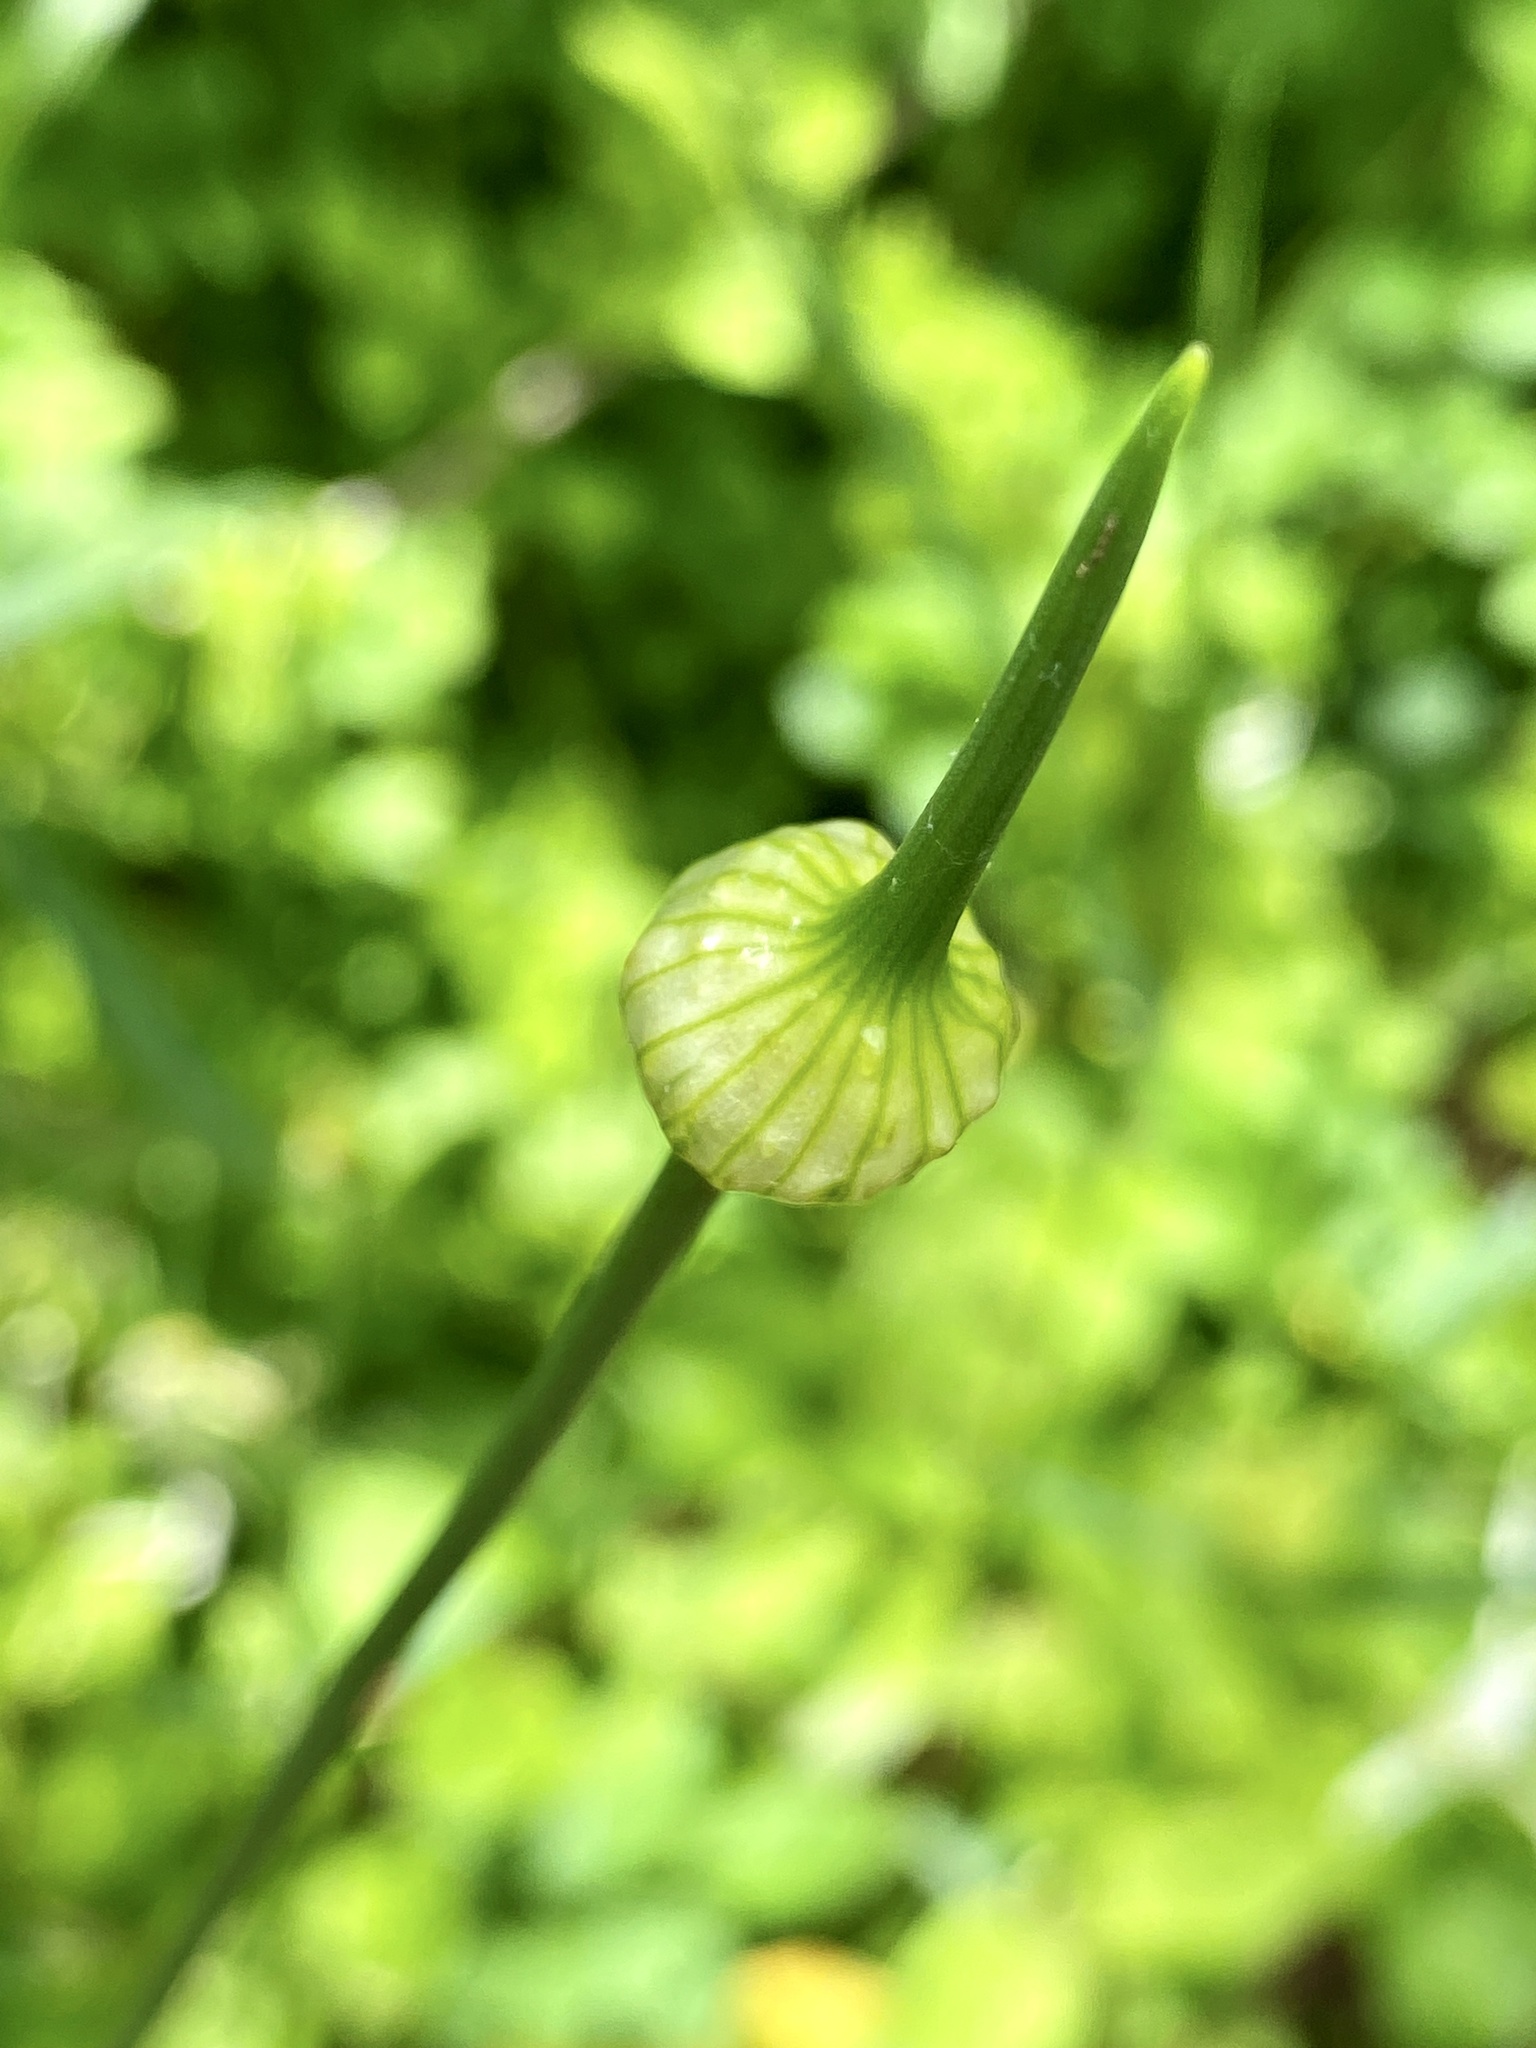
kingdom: Plantae
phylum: Tracheophyta
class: Liliopsida
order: Asparagales
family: Amaryllidaceae
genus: Allium
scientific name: Allium vineale
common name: Crow garlic
